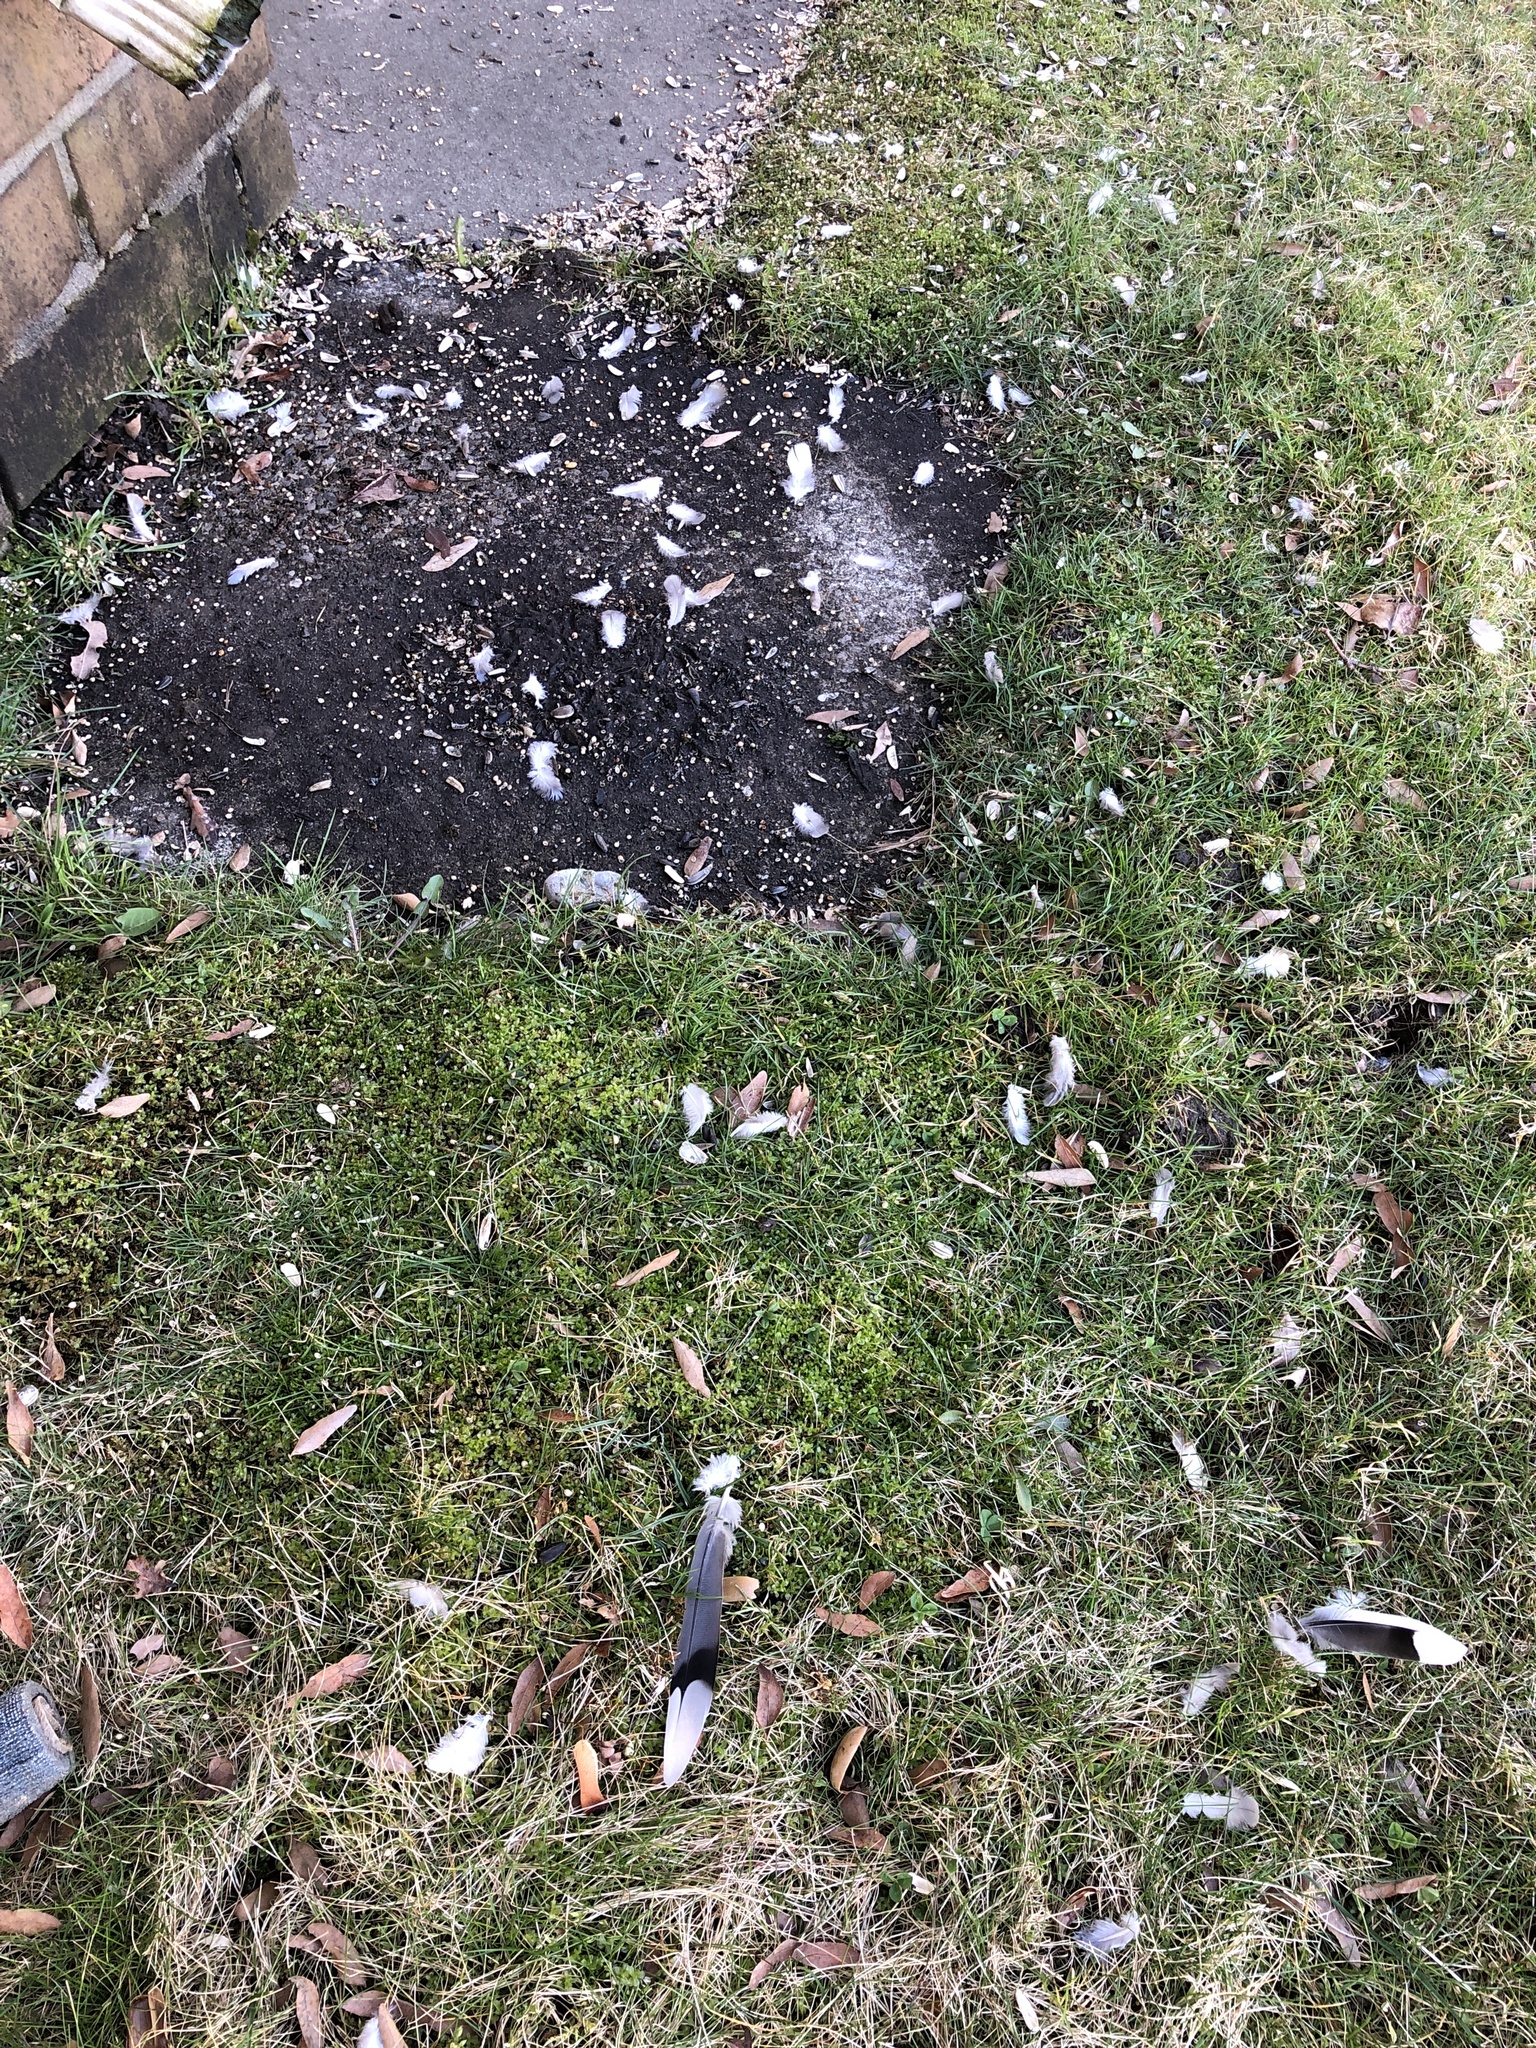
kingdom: Animalia
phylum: Chordata
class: Aves
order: Columbiformes
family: Columbidae
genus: Zenaida
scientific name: Zenaida macroura
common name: Mourning dove
